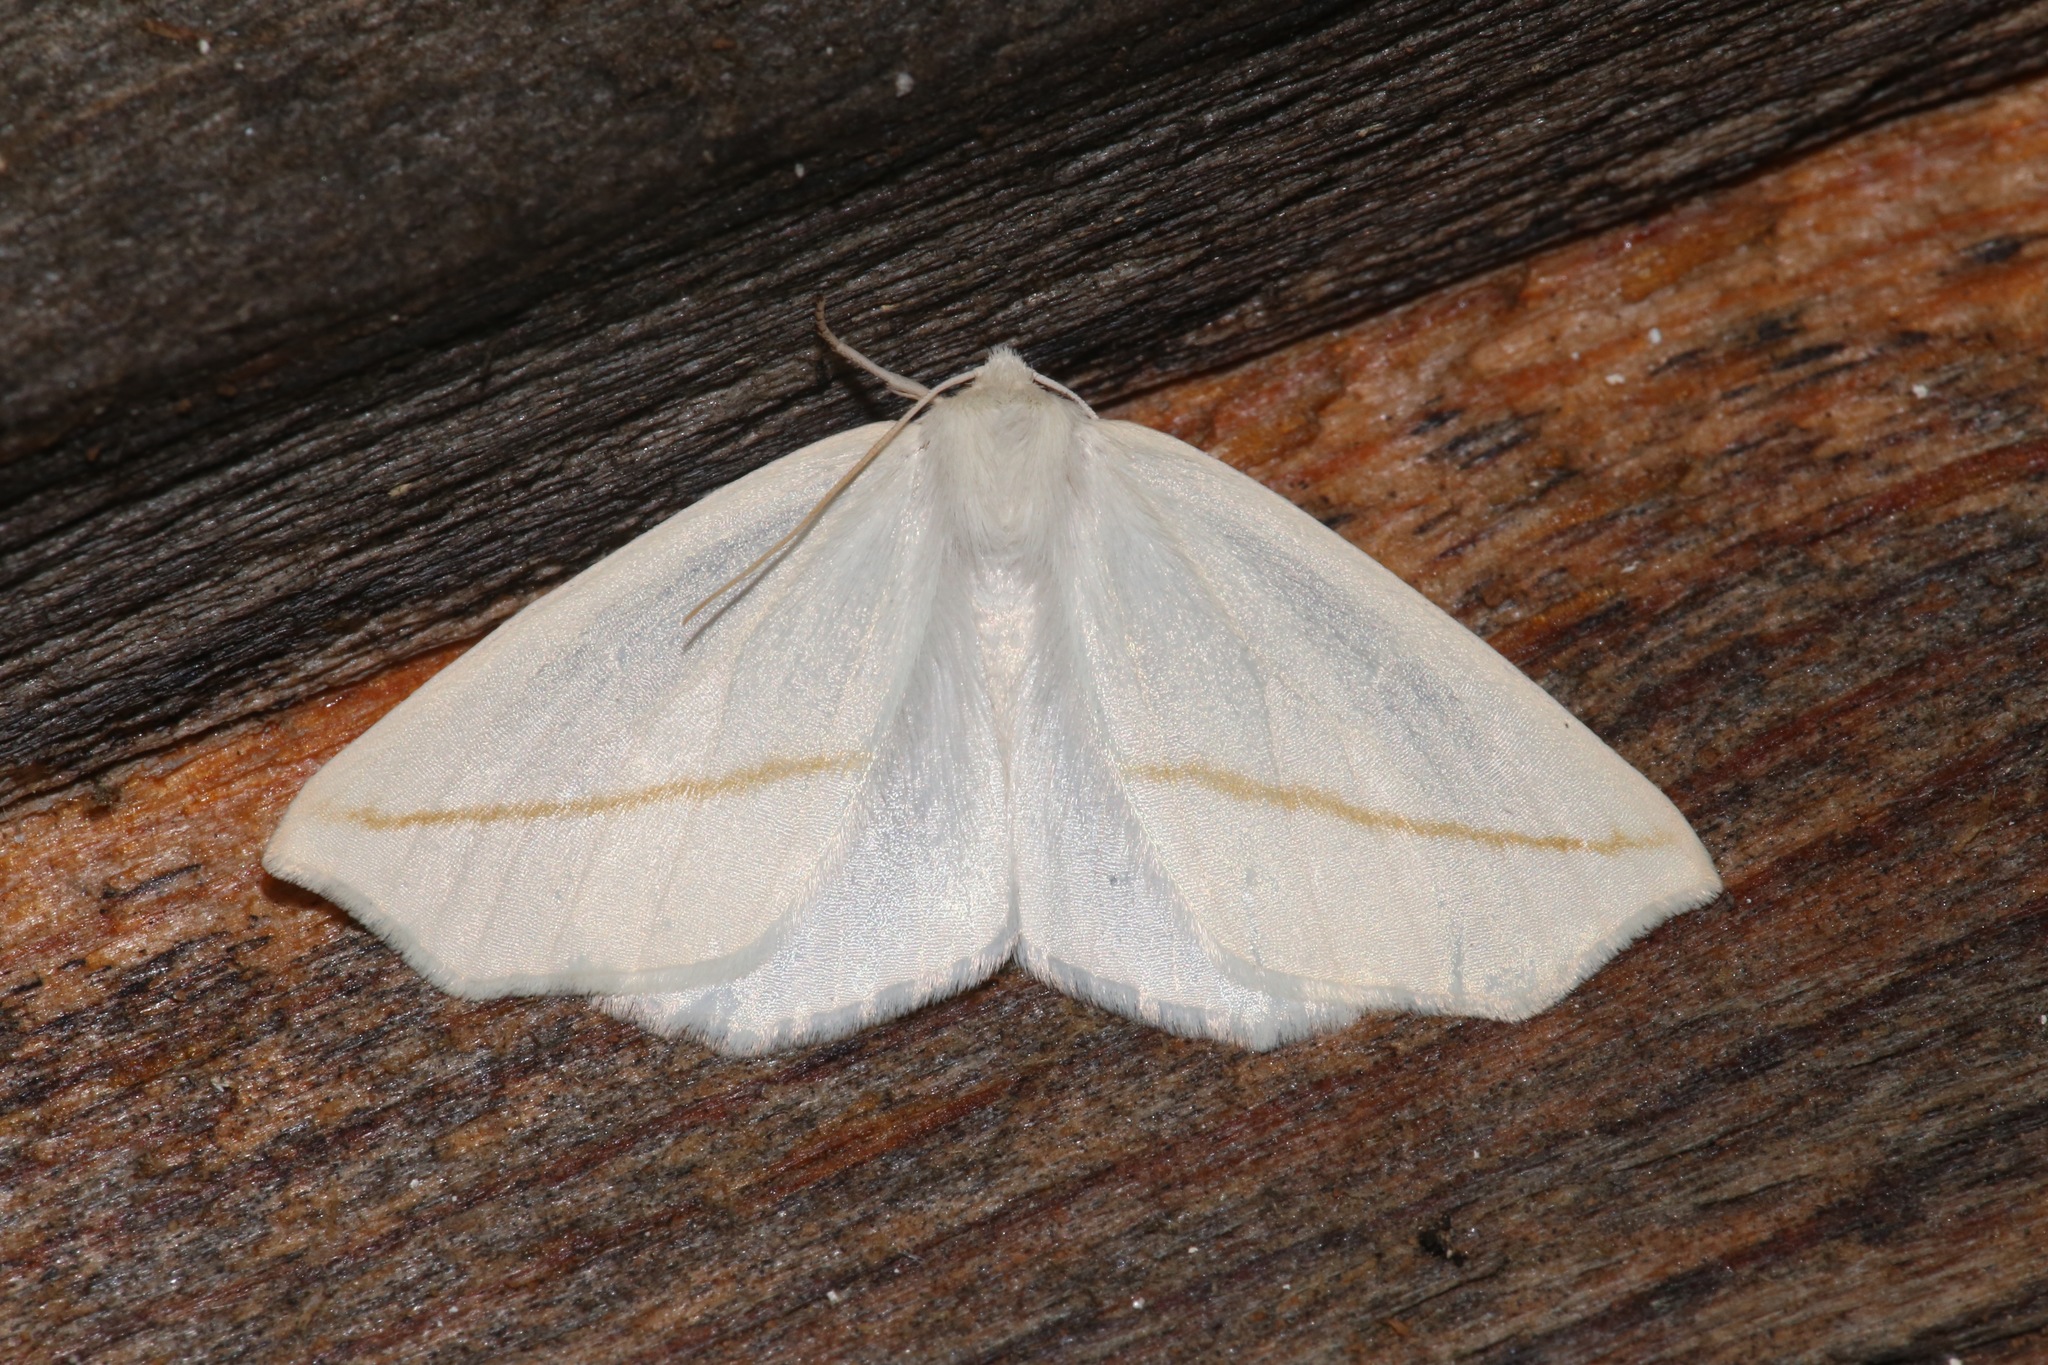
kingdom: Animalia
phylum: Arthropoda
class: Insecta
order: Lepidoptera
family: Geometridae
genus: Tetracis
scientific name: Tetracis cachexiata
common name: White slant-line
